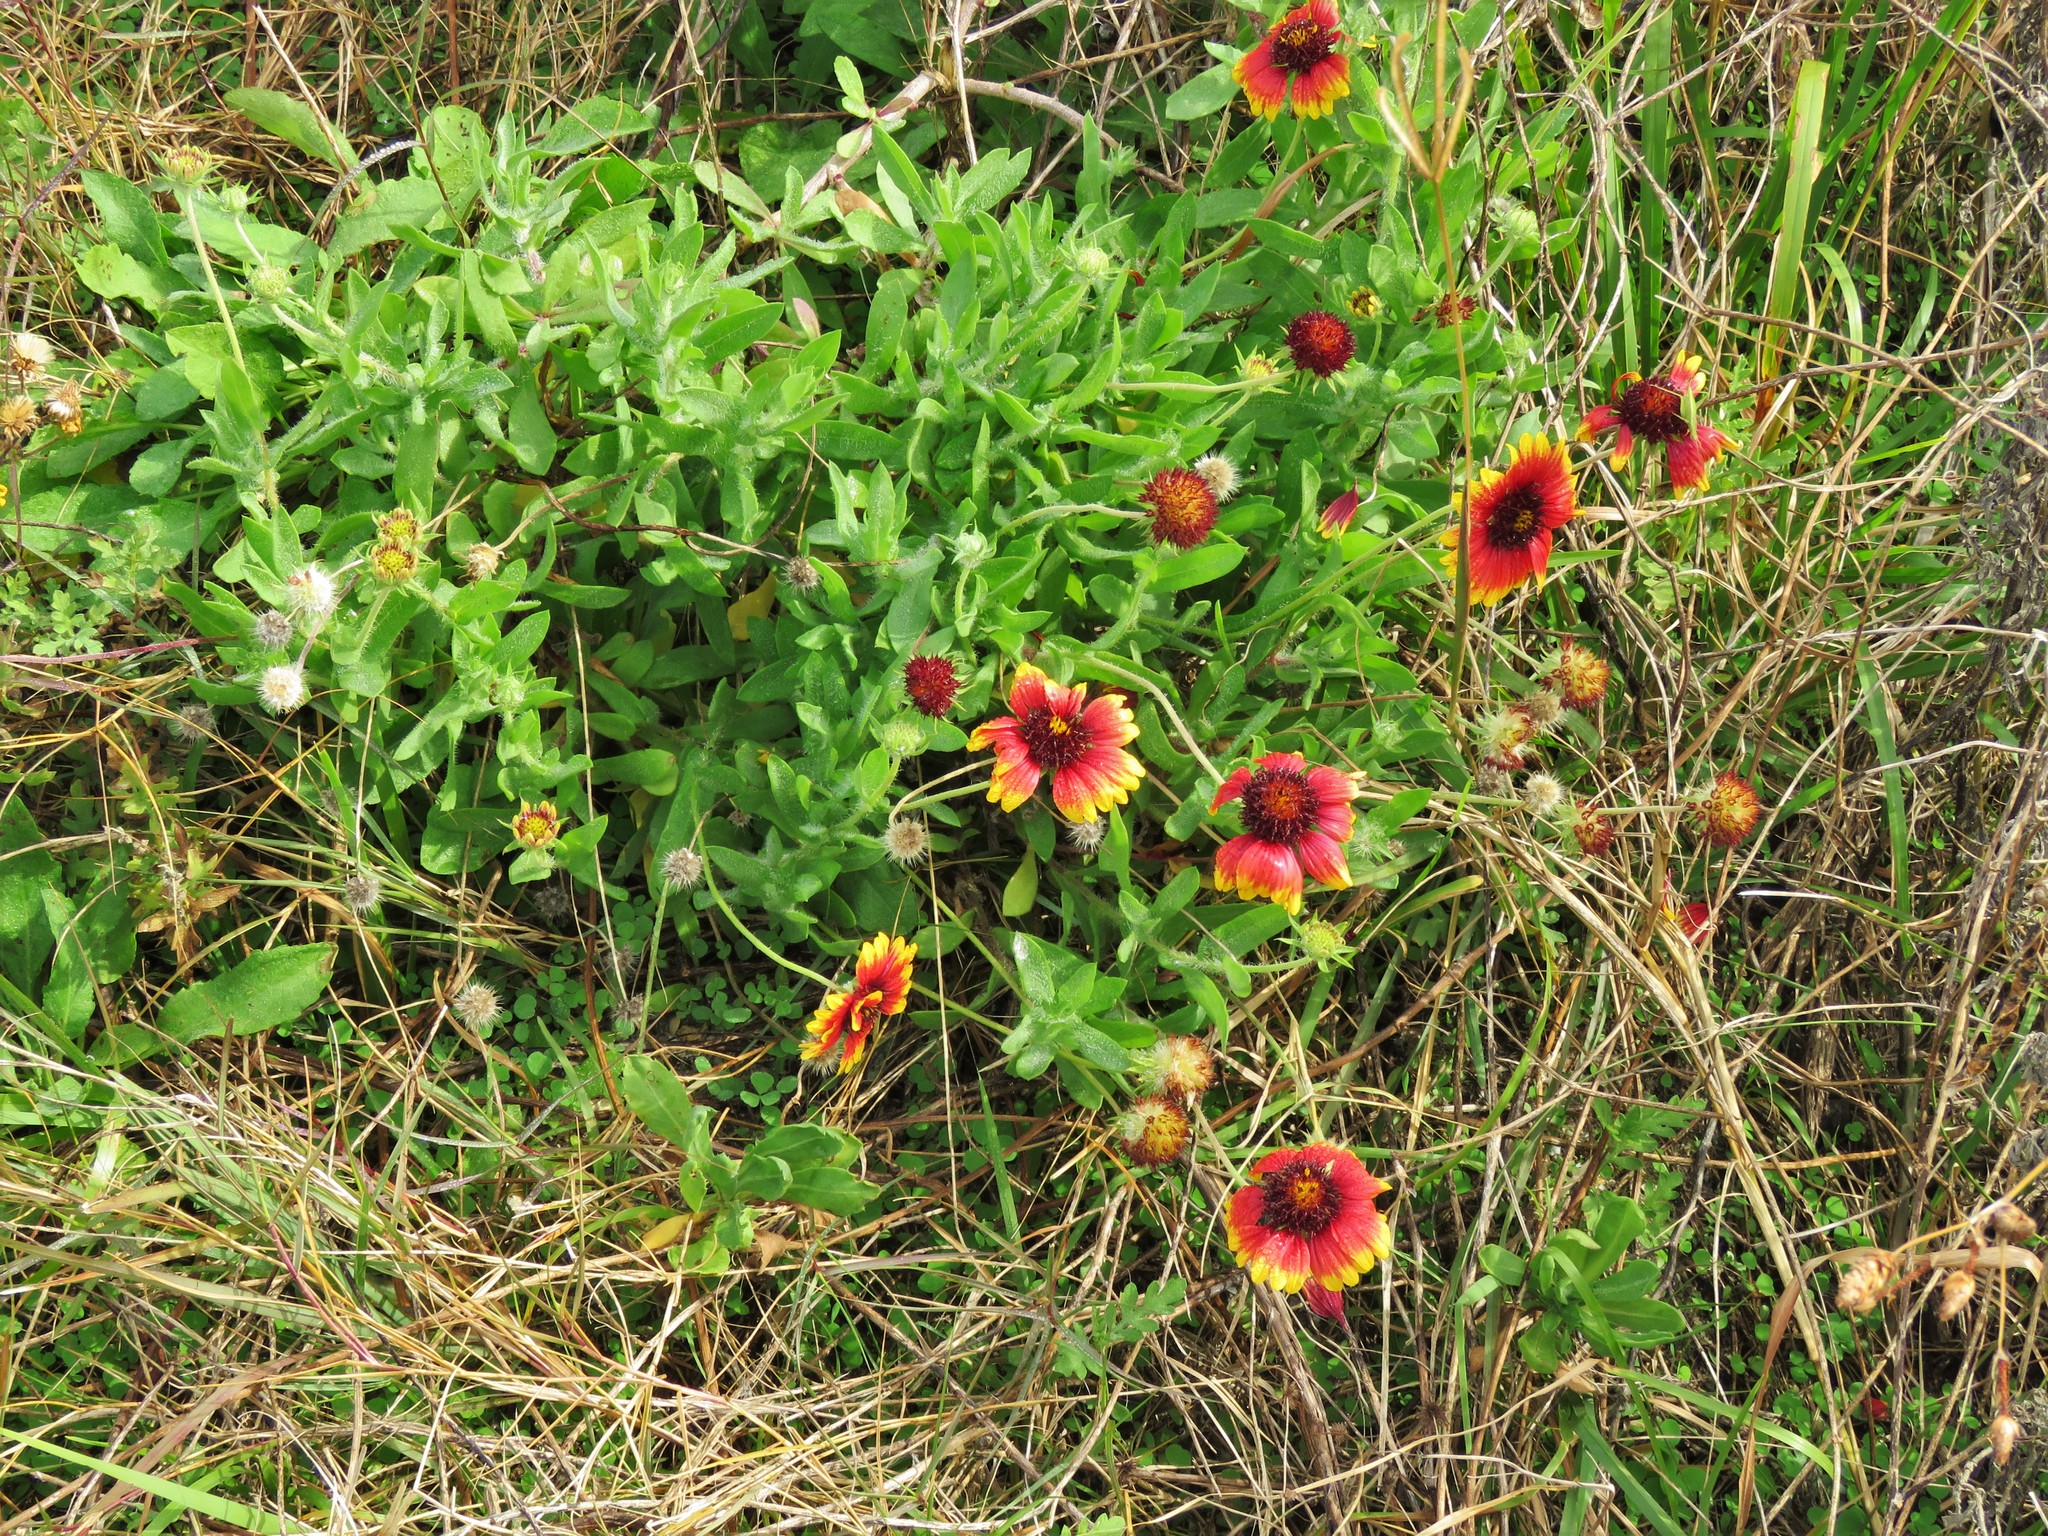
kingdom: Plantae
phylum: Tracheophyta
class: Magnoliopsida
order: Asterales
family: Asteraceae
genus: Gaillardia
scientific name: Gaillardia pulchella
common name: Firewheel
